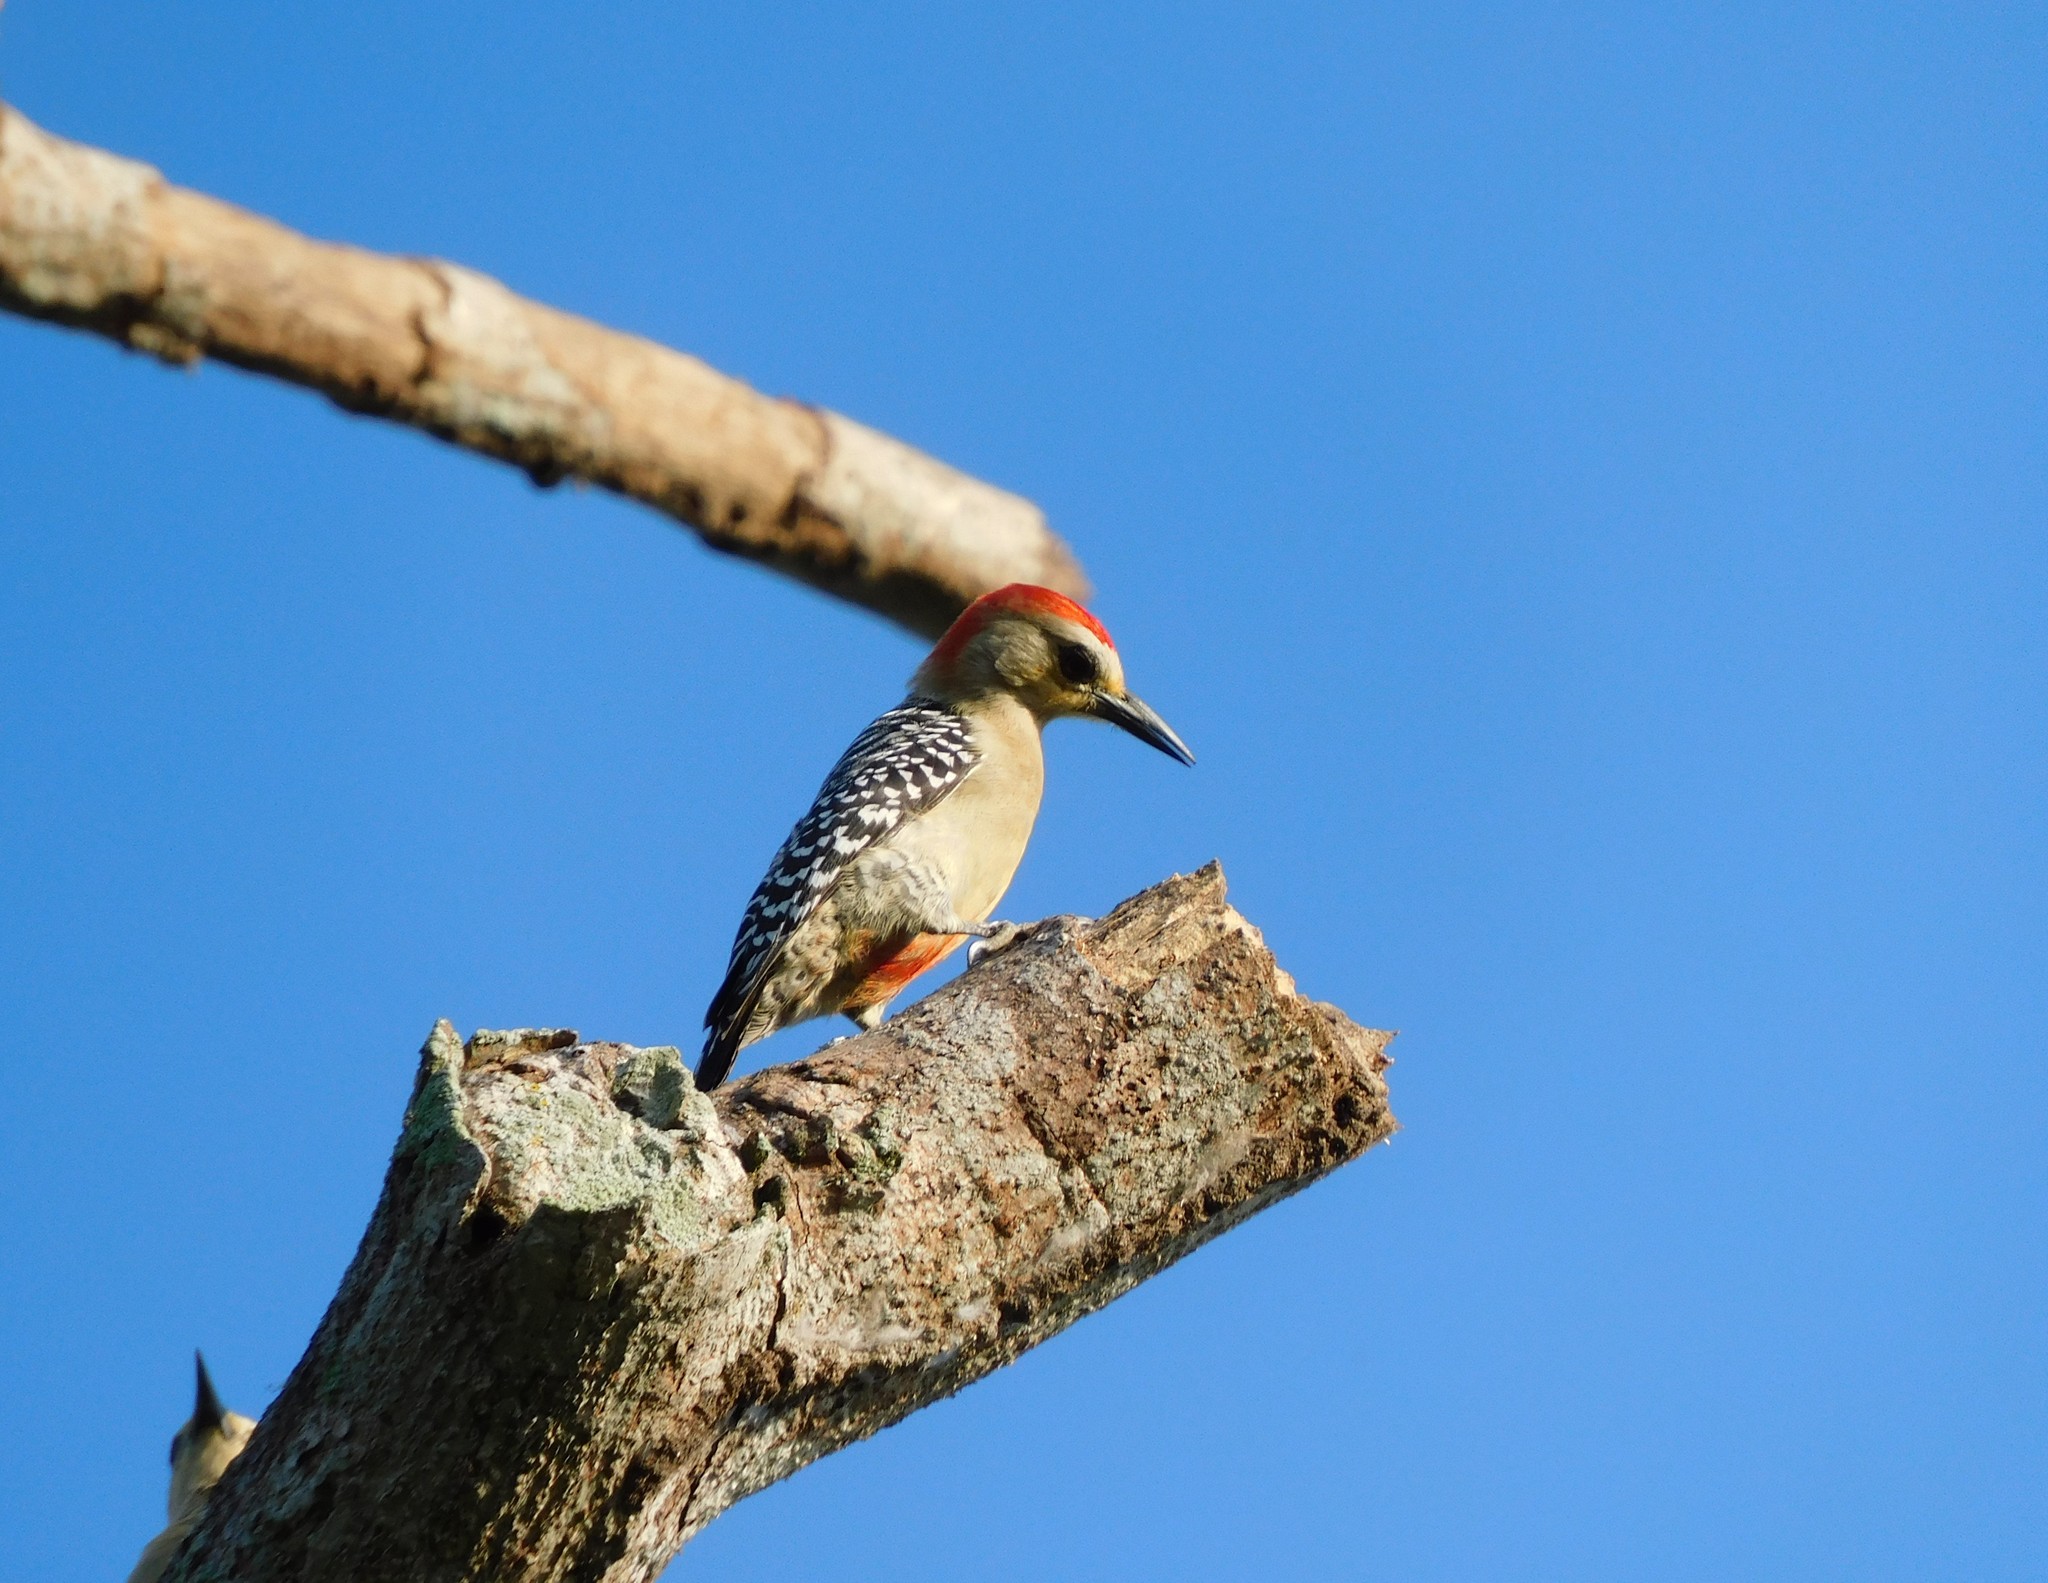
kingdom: Animalia
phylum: Chordata
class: Aves
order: Piciformes
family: Picidae
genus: Melanerpes
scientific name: Melanerpes rubricapillus
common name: Red-crowned woodpecker
